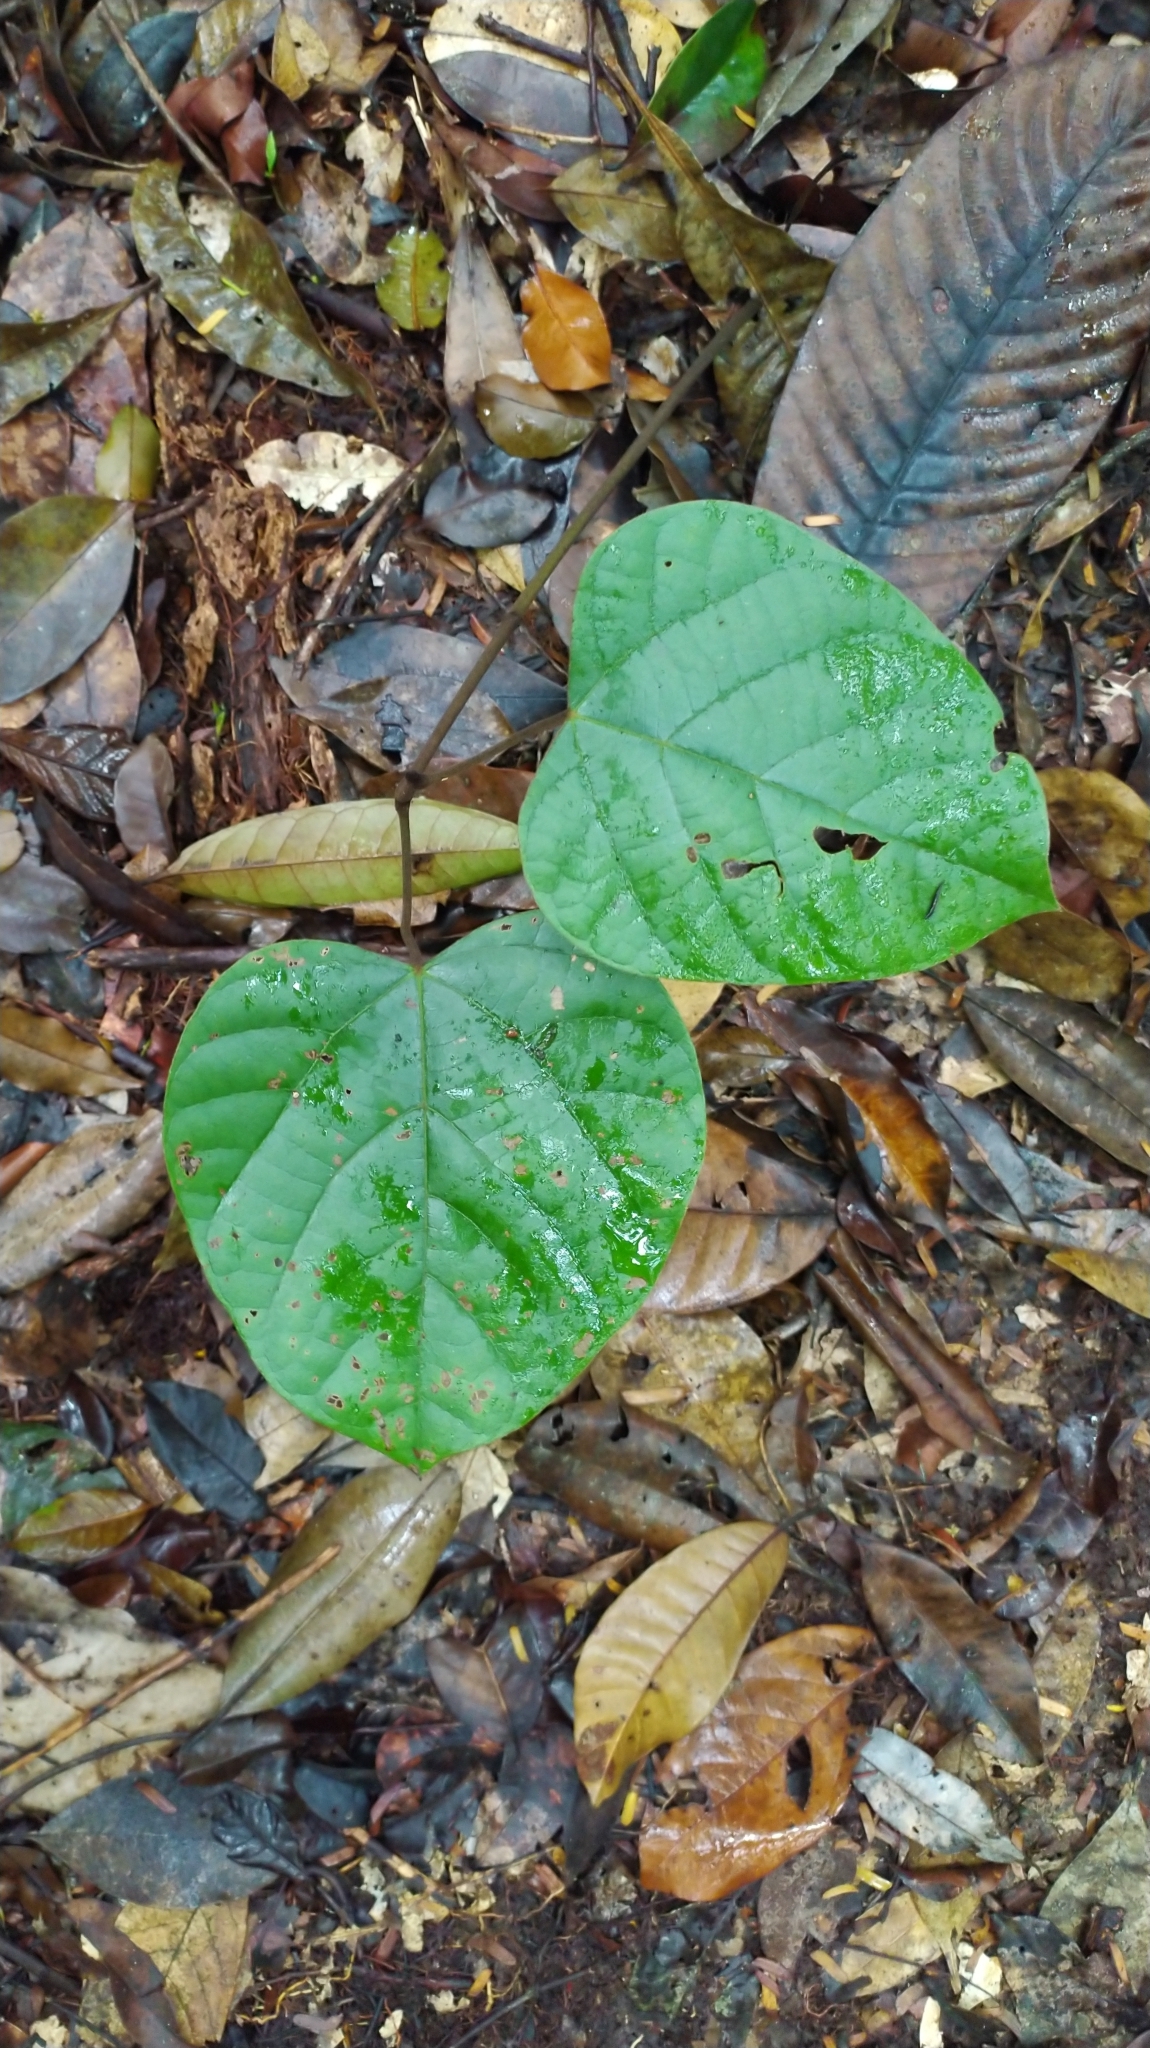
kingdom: Plantae
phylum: Tracheophyta
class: Magnoliopsida
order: Ranunculales
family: Menispermaceae
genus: Elephantomene
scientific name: Elephantomene eburnea
